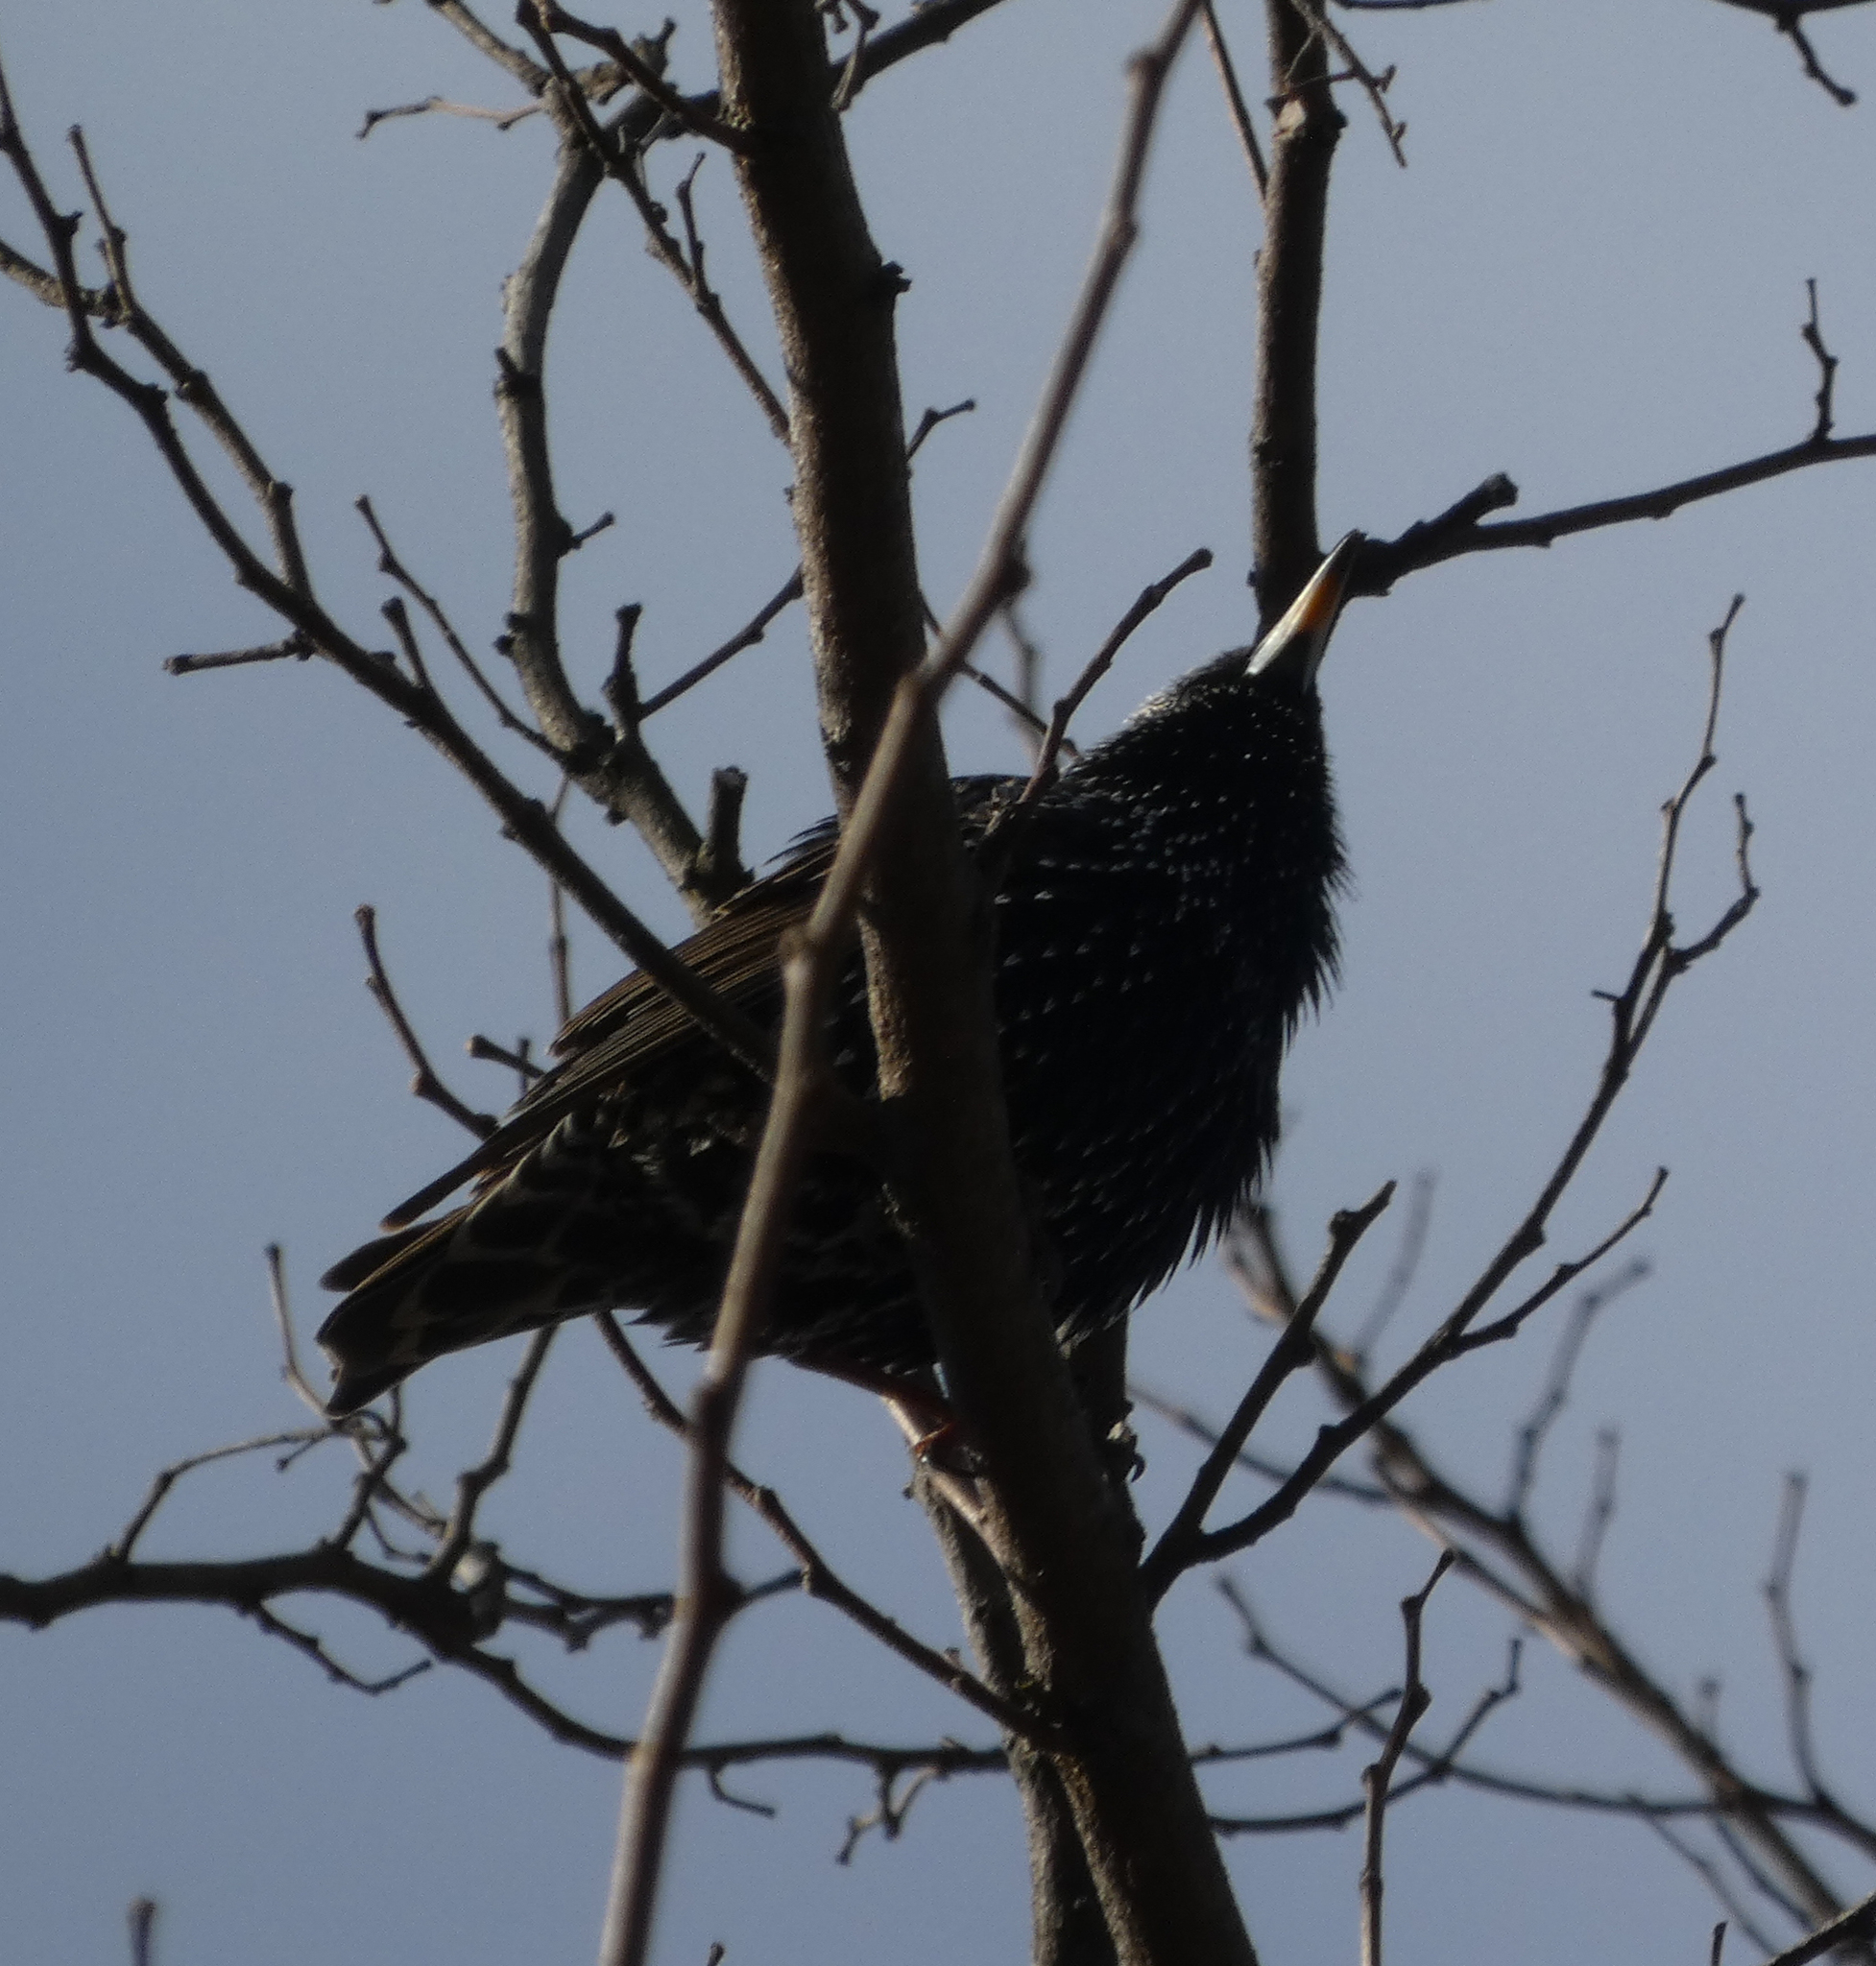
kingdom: Animalia
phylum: Chordata
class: Aves
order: Passeriformes
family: Sturnidae
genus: Sturnus
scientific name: Sturnus vulgaris
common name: Common starling
